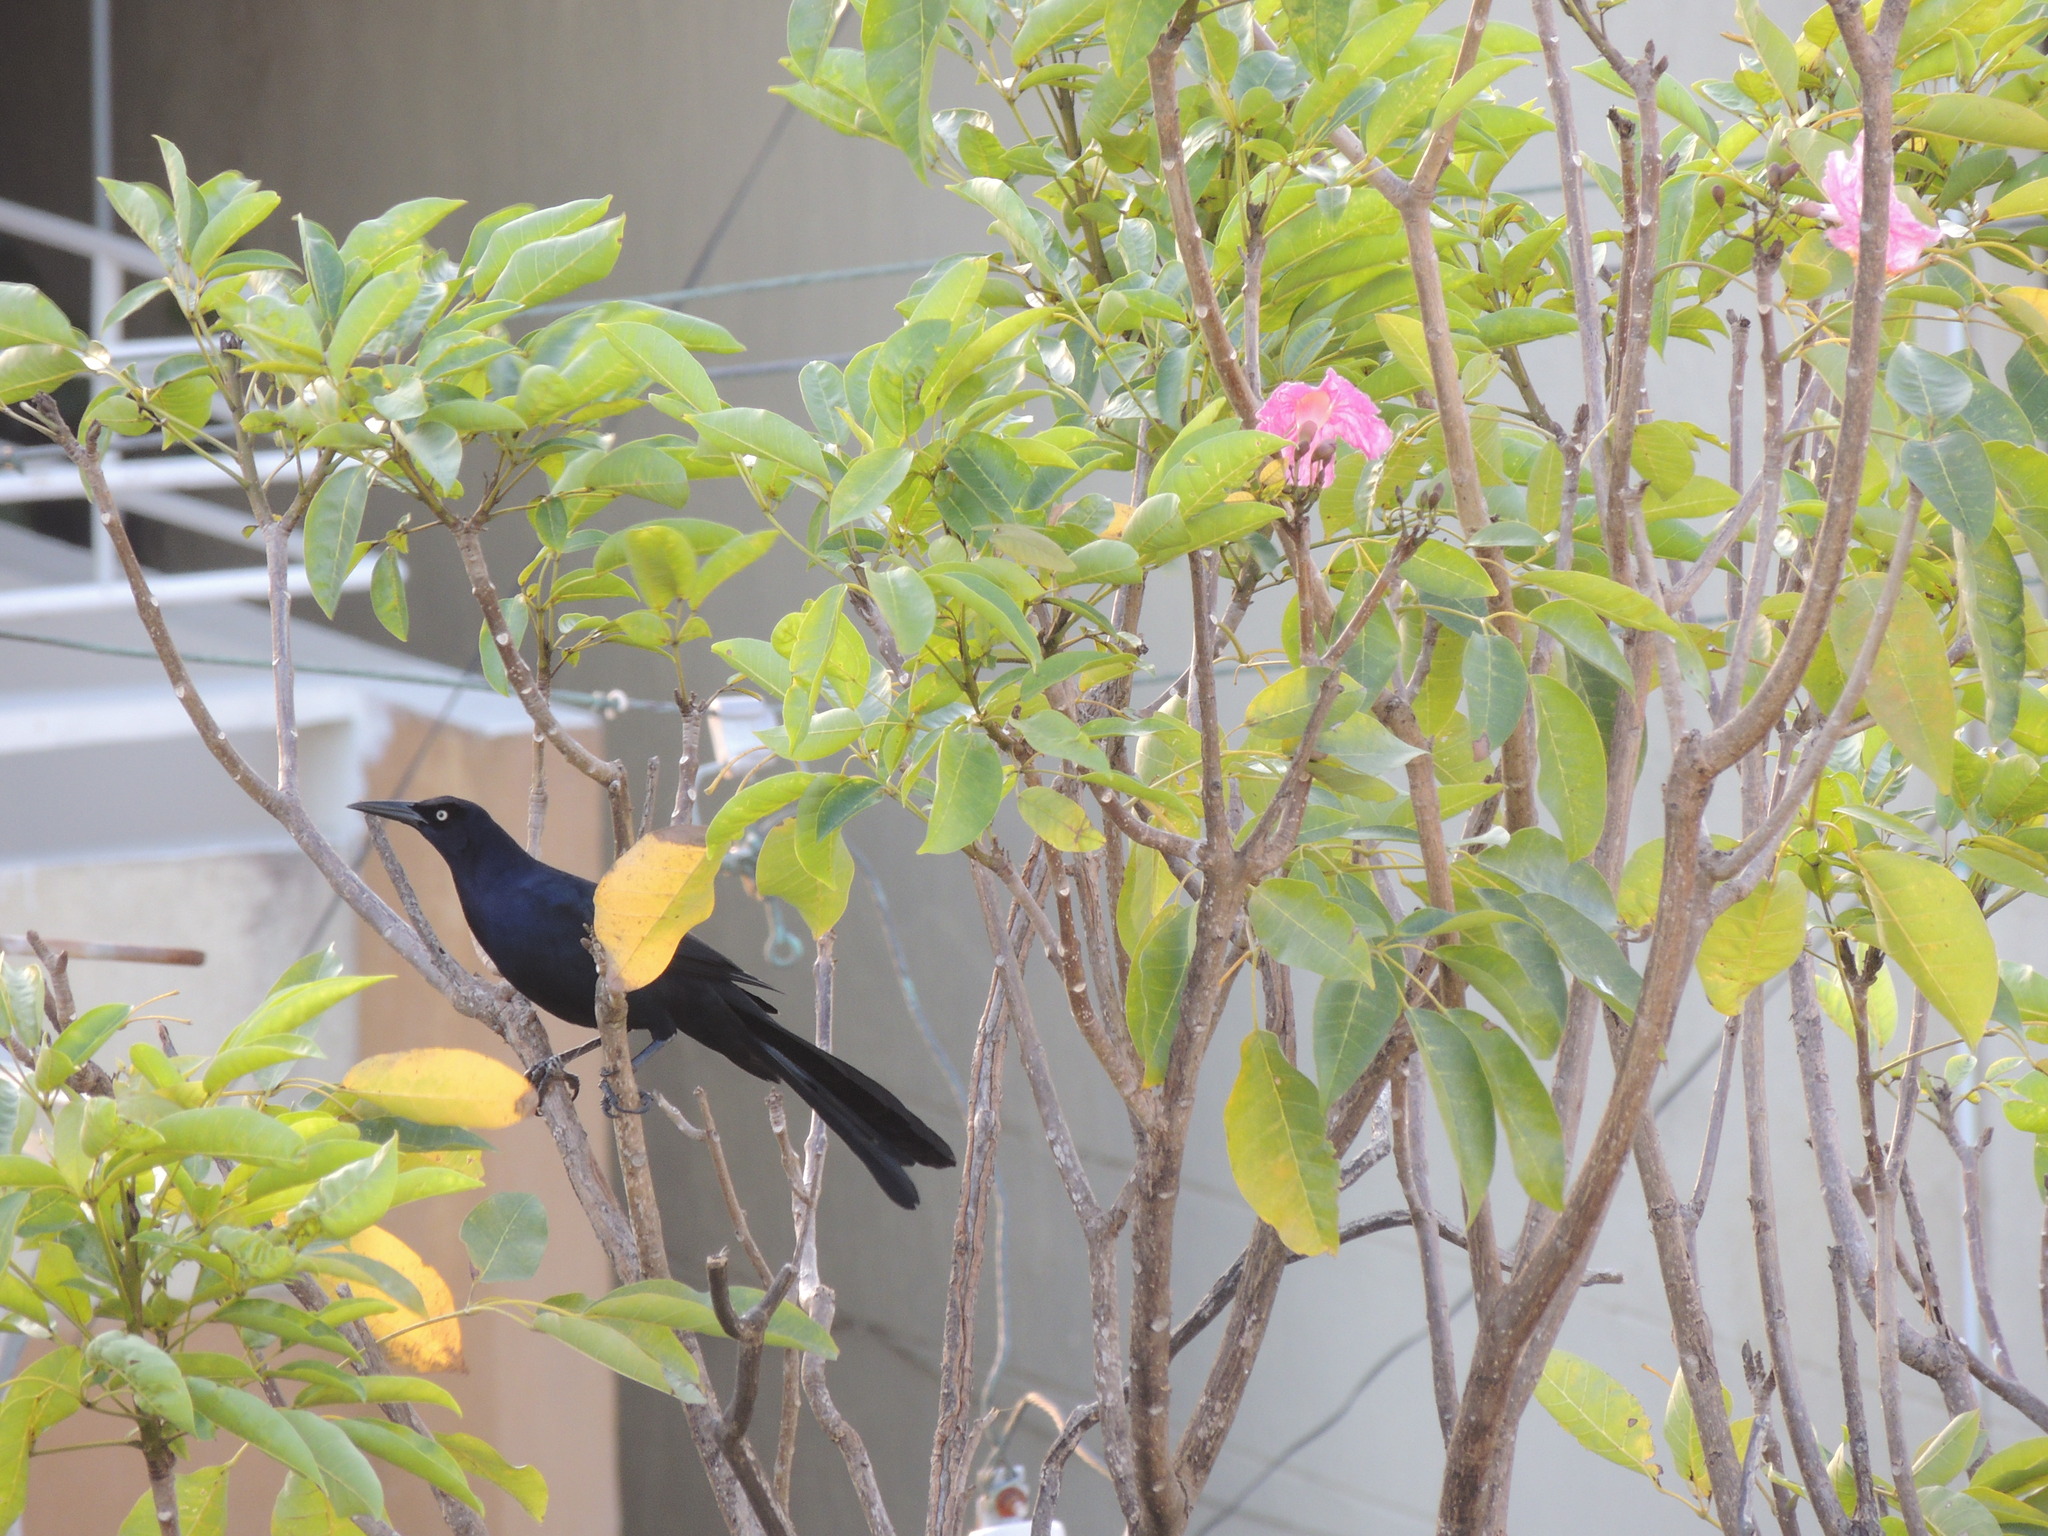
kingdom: Animalia
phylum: Chordata
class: Aves
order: Passeriformes
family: Icteridae
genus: Quiscalus
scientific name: Quiscalus mexicanus
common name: Great-tailed grackle
